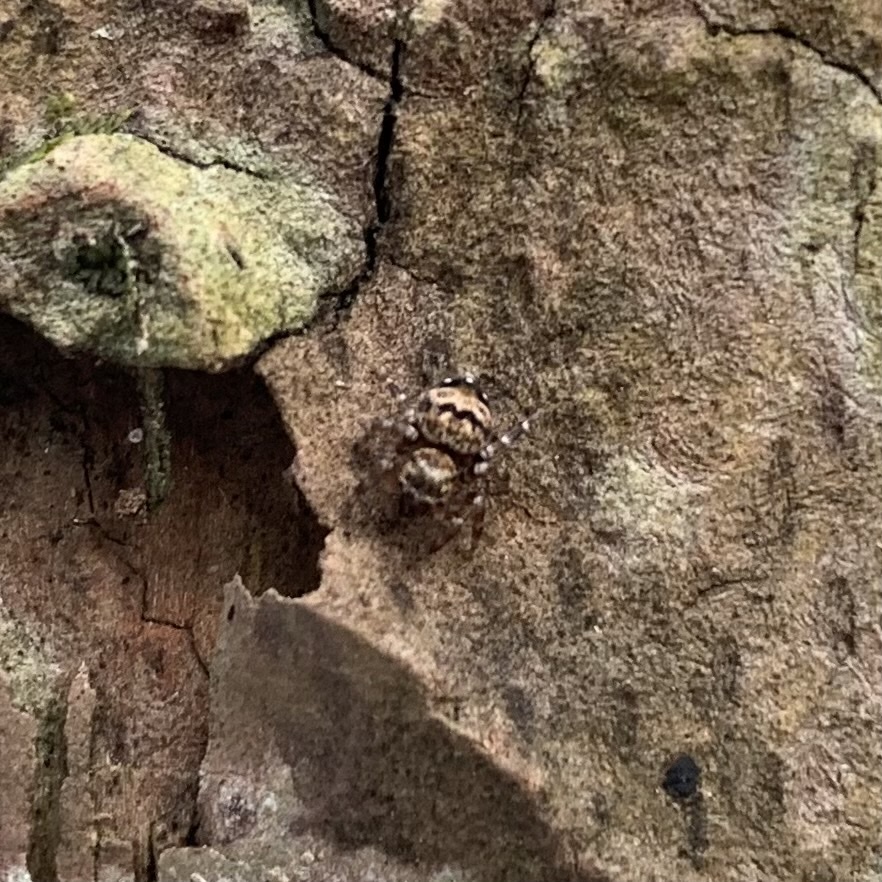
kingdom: Animalia
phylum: Arthropoda
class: Arachnida
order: Araneae
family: Salticidae
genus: Thorelliola
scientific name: Thorelliola ensifera
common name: Jumping spider
